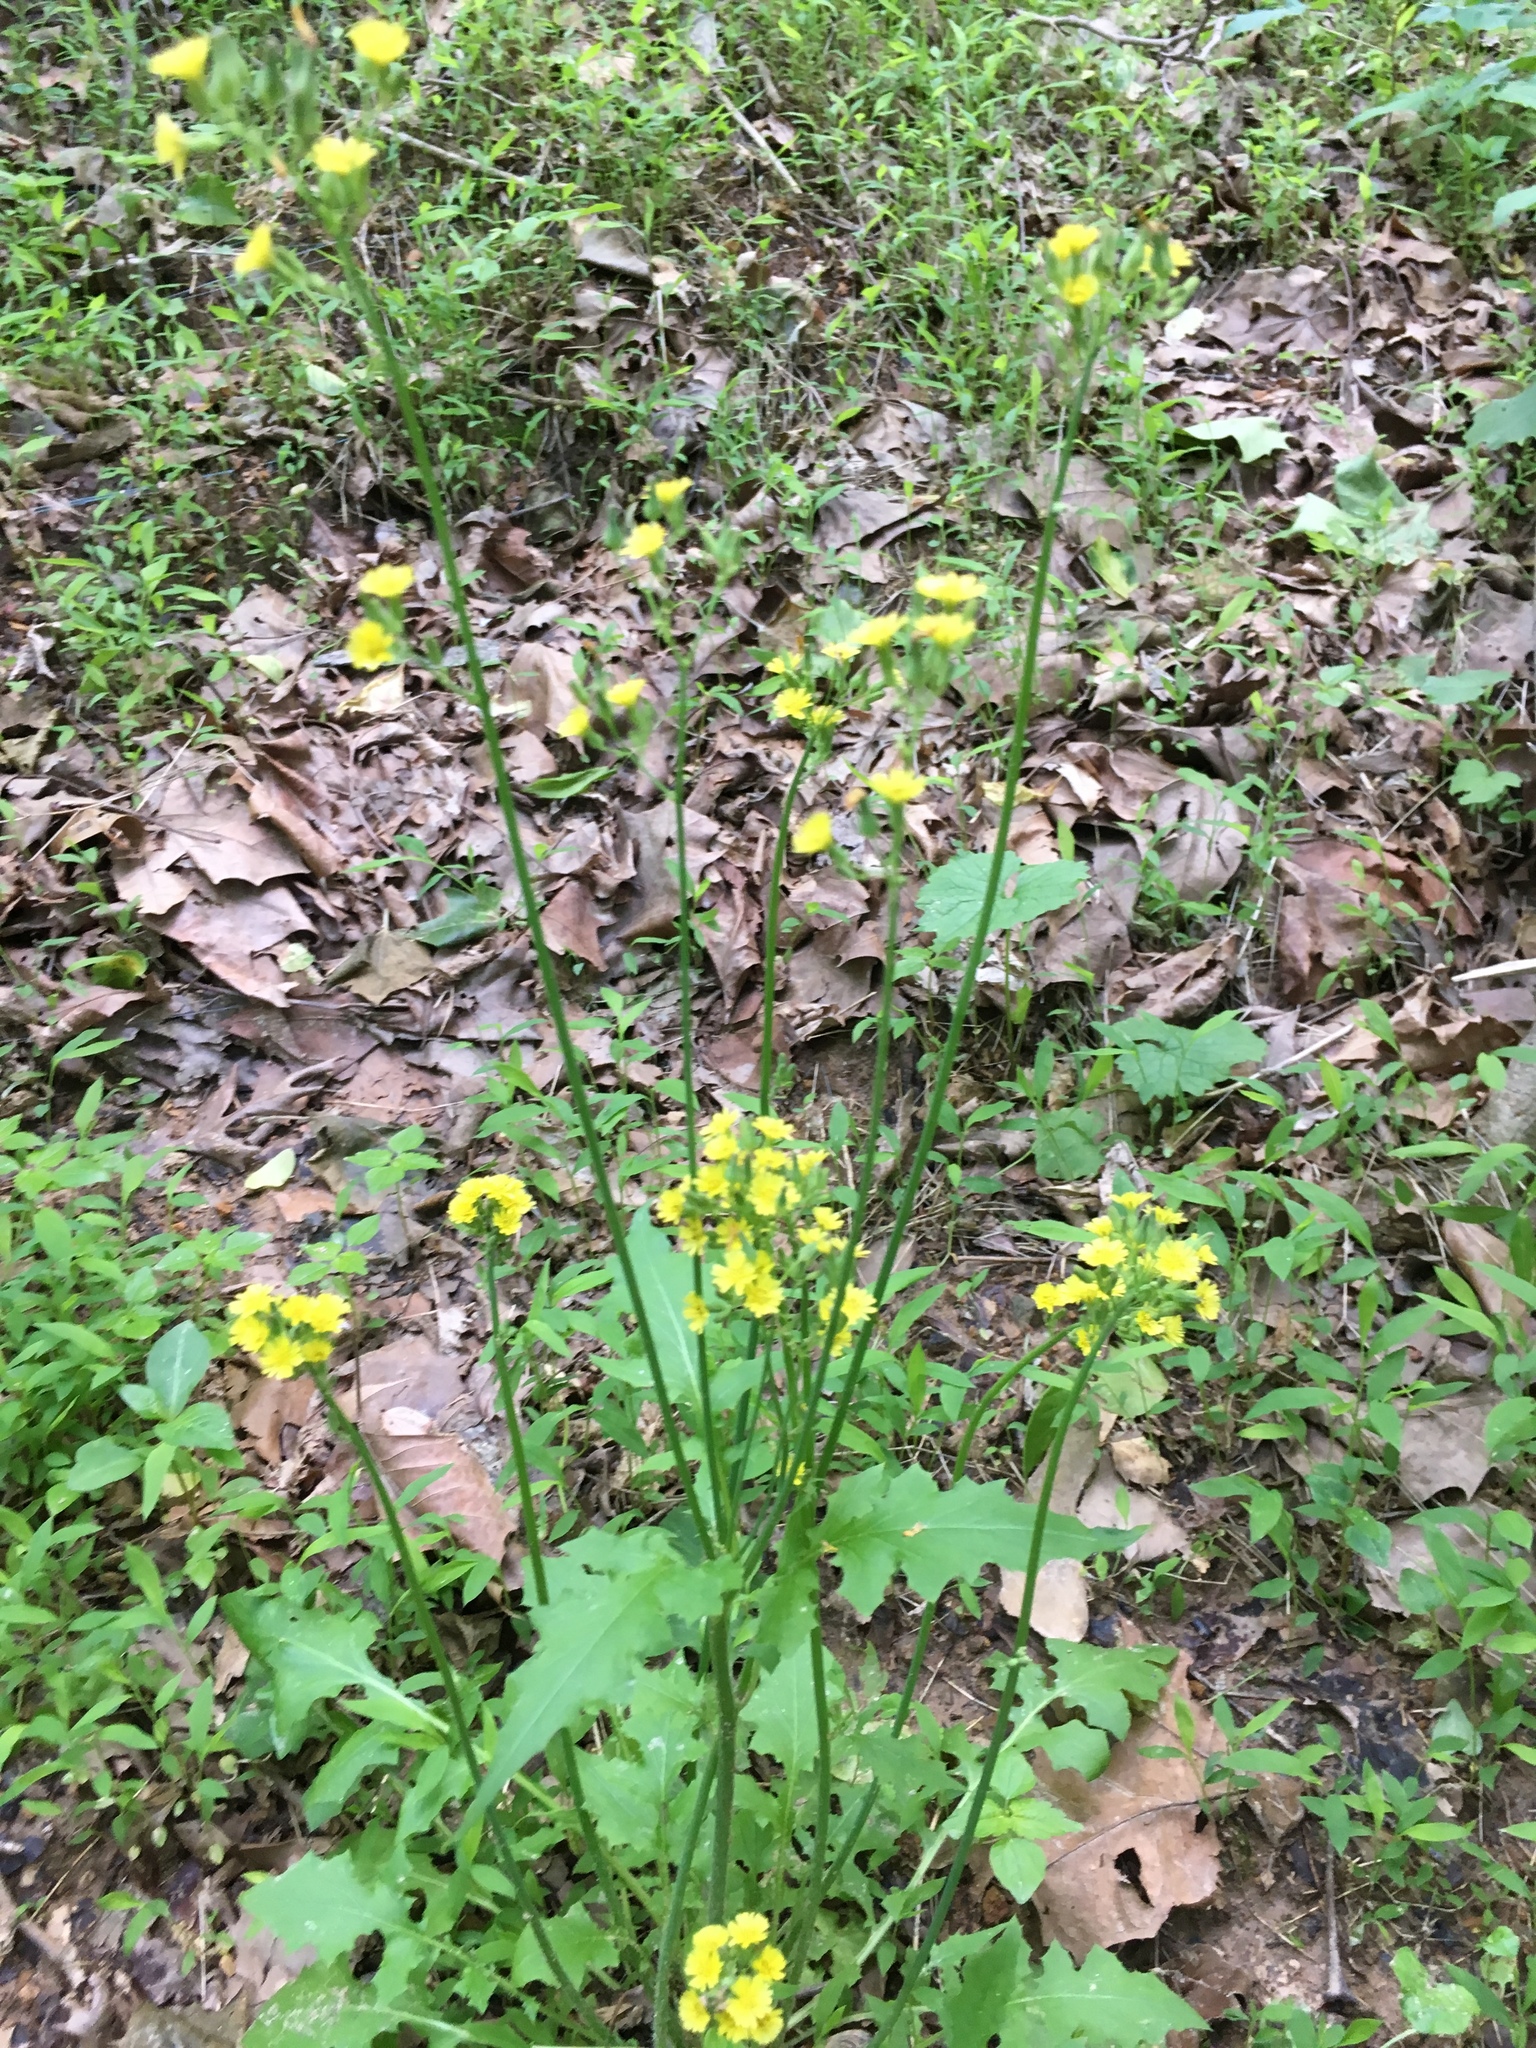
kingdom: Plantae
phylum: Tracheophyta
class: Magnoliopsida
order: Asterales
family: Asteraceae
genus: Youngia
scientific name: Youngia japonica
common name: Oriental false hawksbeard
